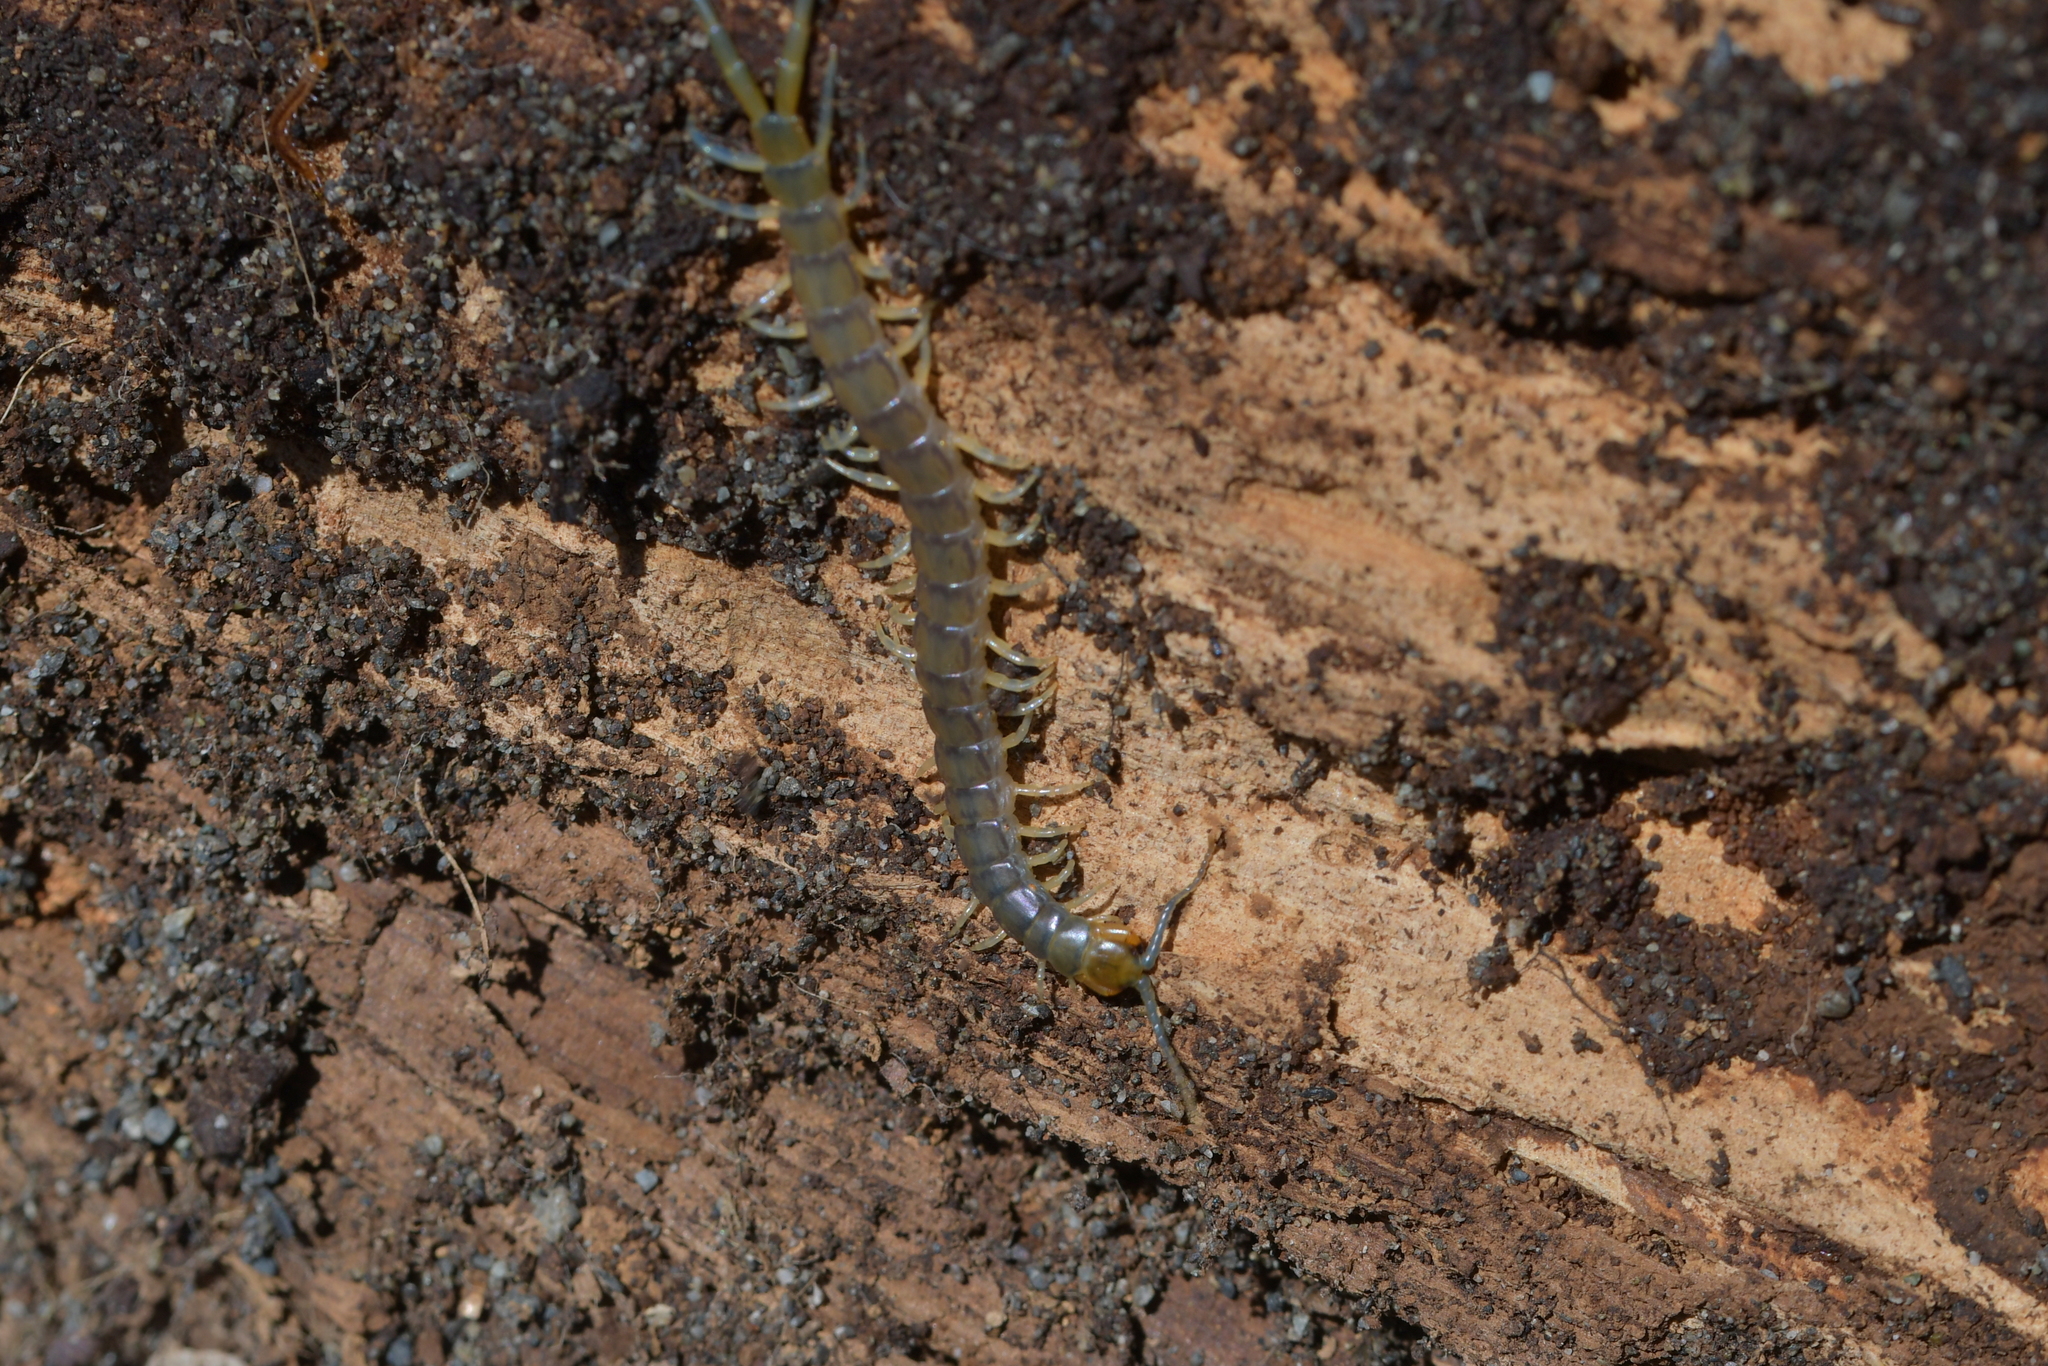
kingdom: Animalia
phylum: Arthropoda
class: Chilopoda
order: Scolopendromorpha
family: Scolopendridae
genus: Cormocephalus
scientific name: Cormocephalus rubriceps
